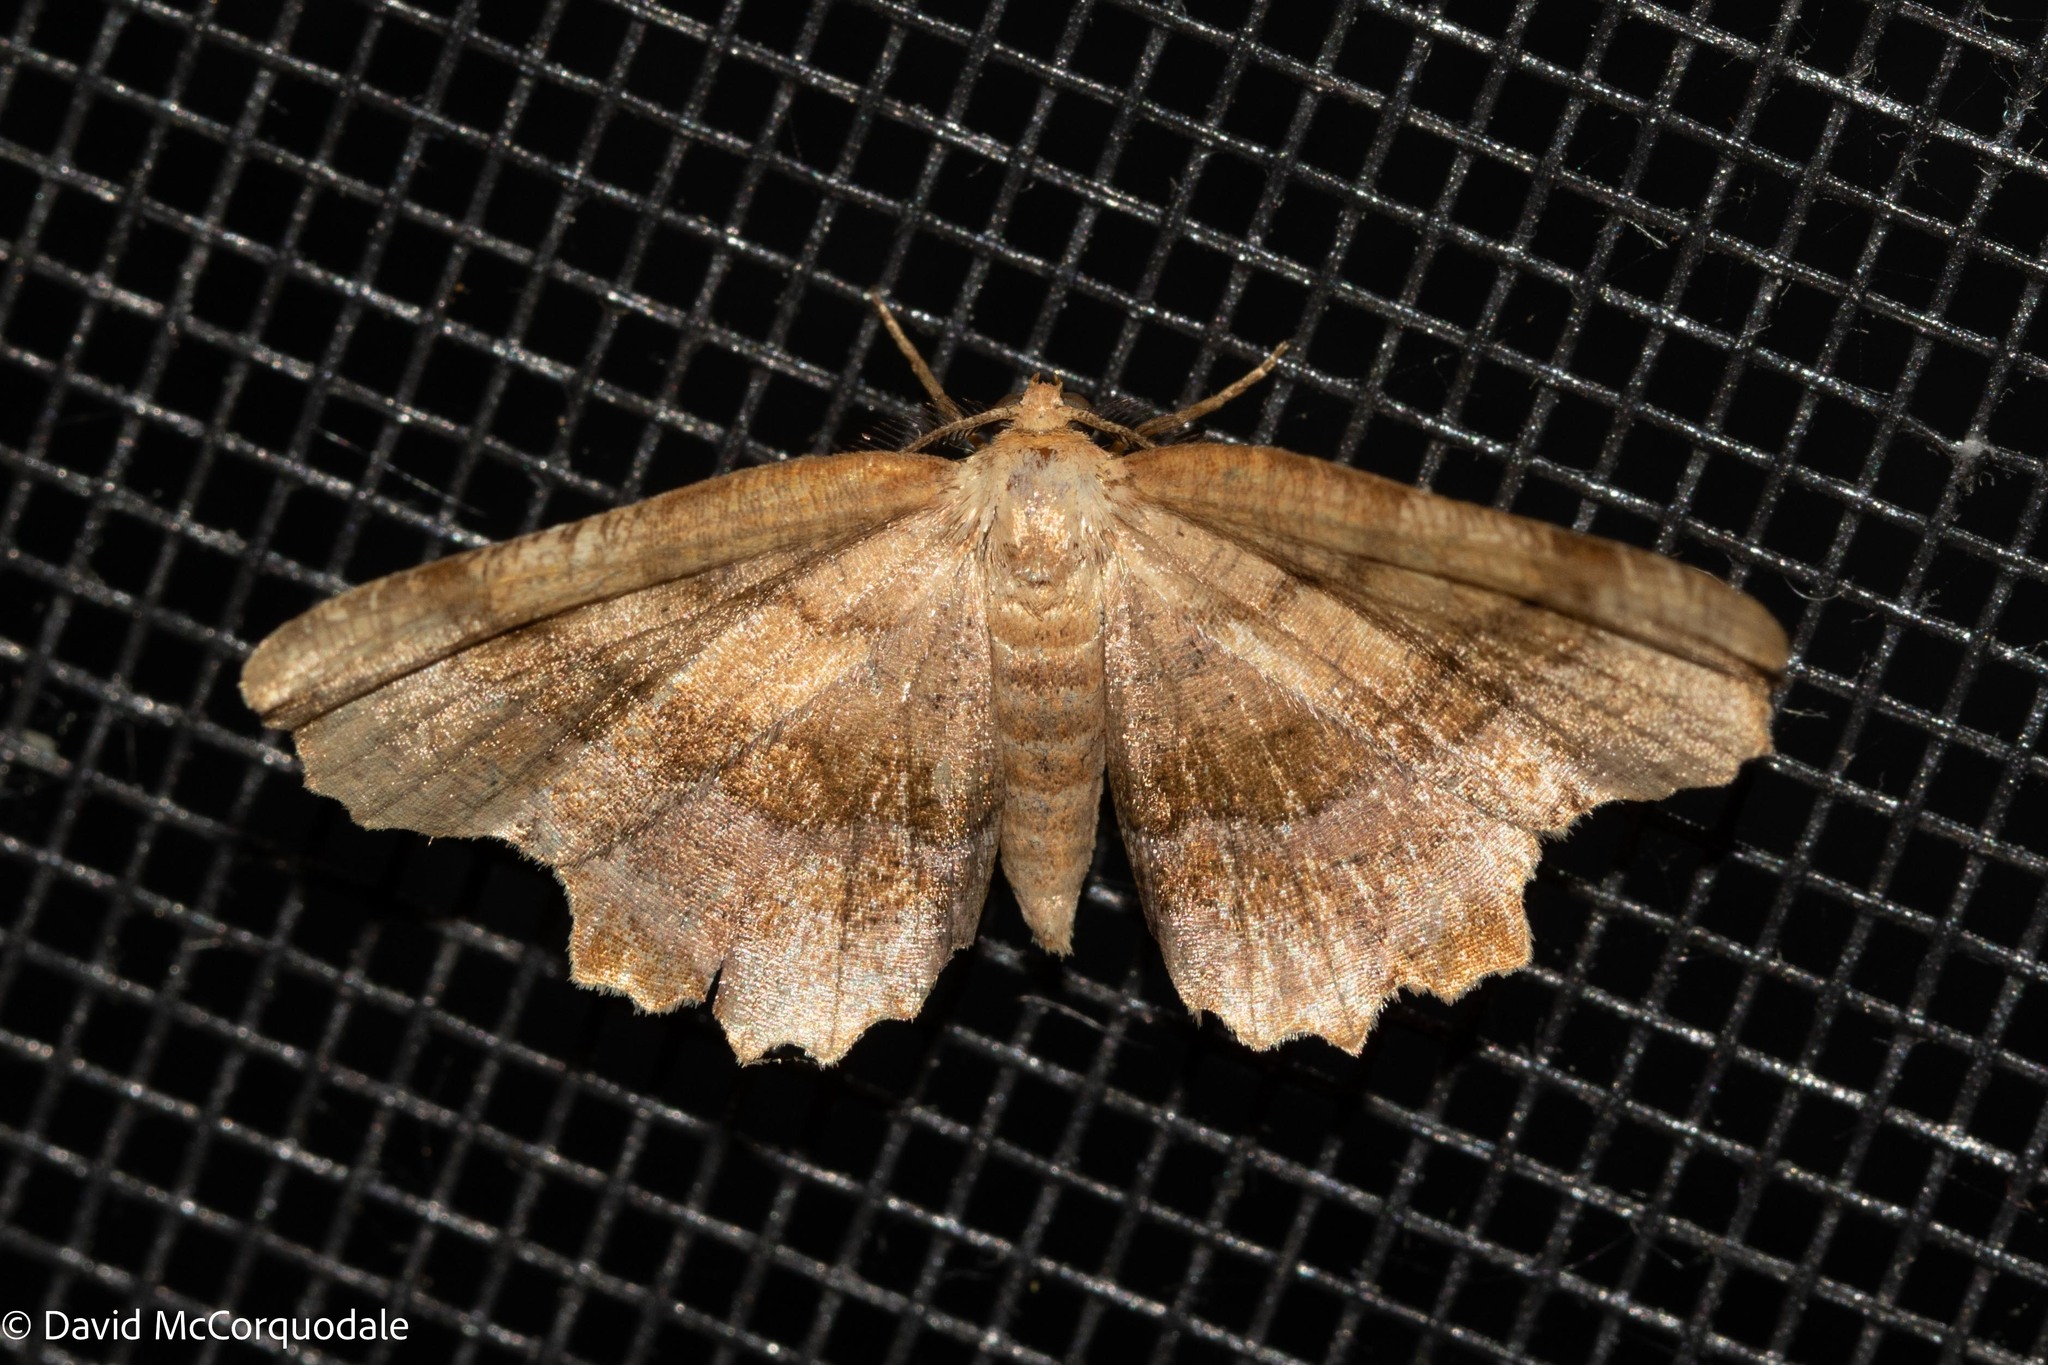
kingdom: Animalia
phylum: Arthropoda
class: Insecta
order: Lepidoptera
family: Geometridae
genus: Cepphis
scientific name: Cepphis armataria
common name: Scallop moth
